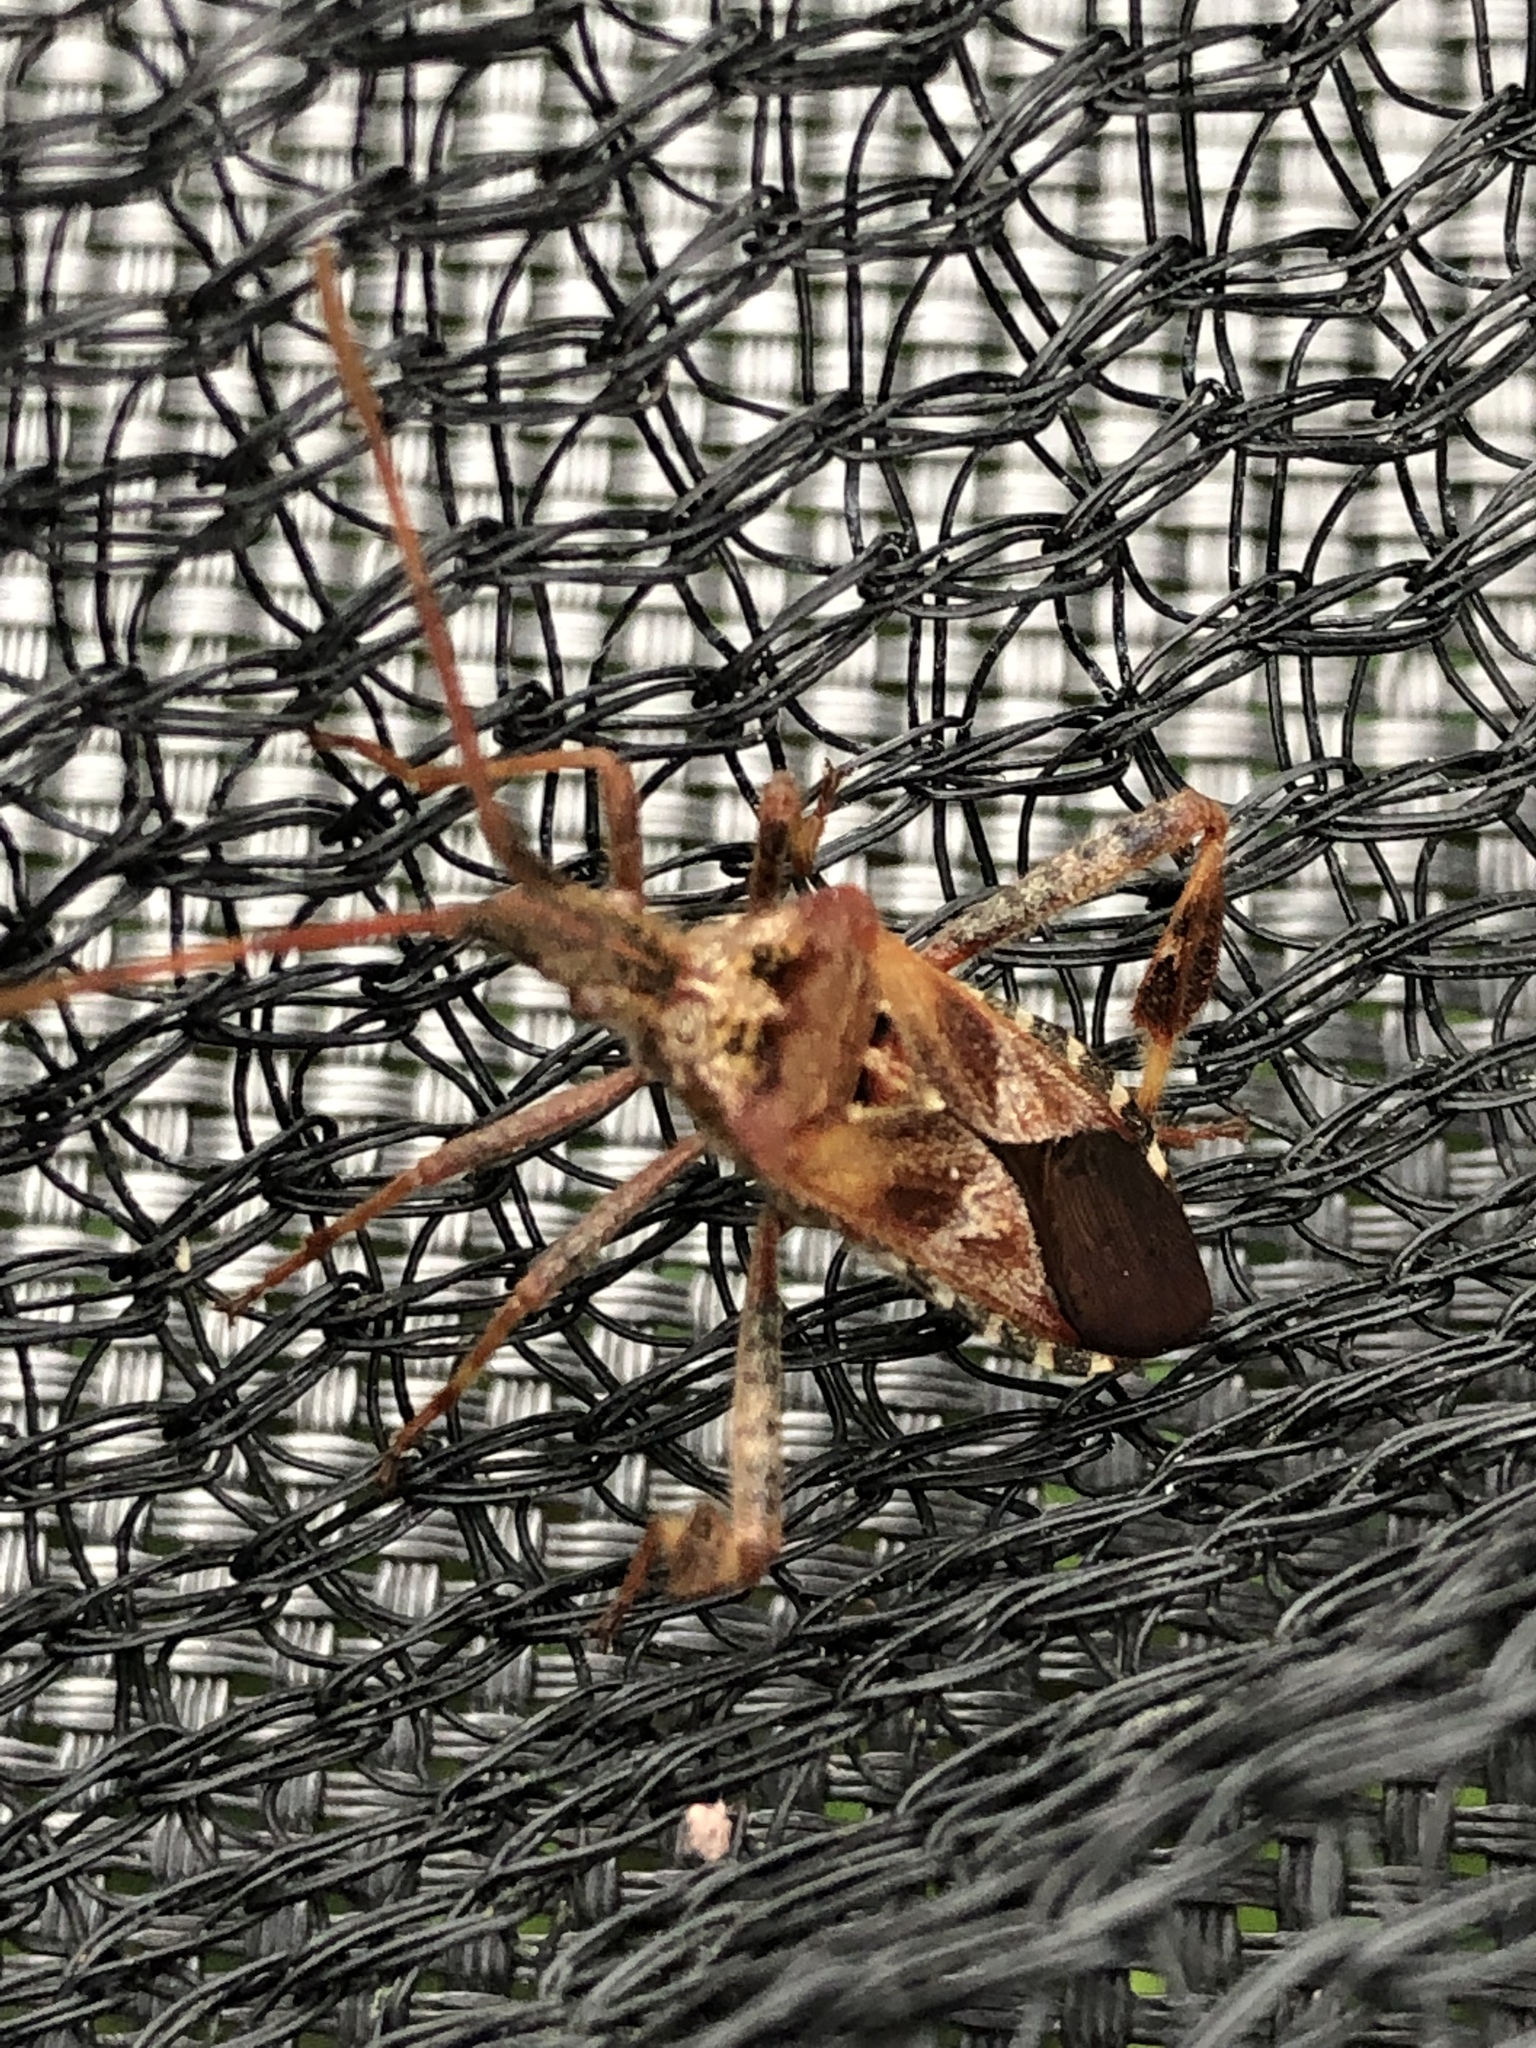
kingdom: Animalia
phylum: Arthropoda
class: Insecta
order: Hemiptera
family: Coreidae
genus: Leptoglossus
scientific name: Leptoglossus occidentalis
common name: Western conifer-seed bug
